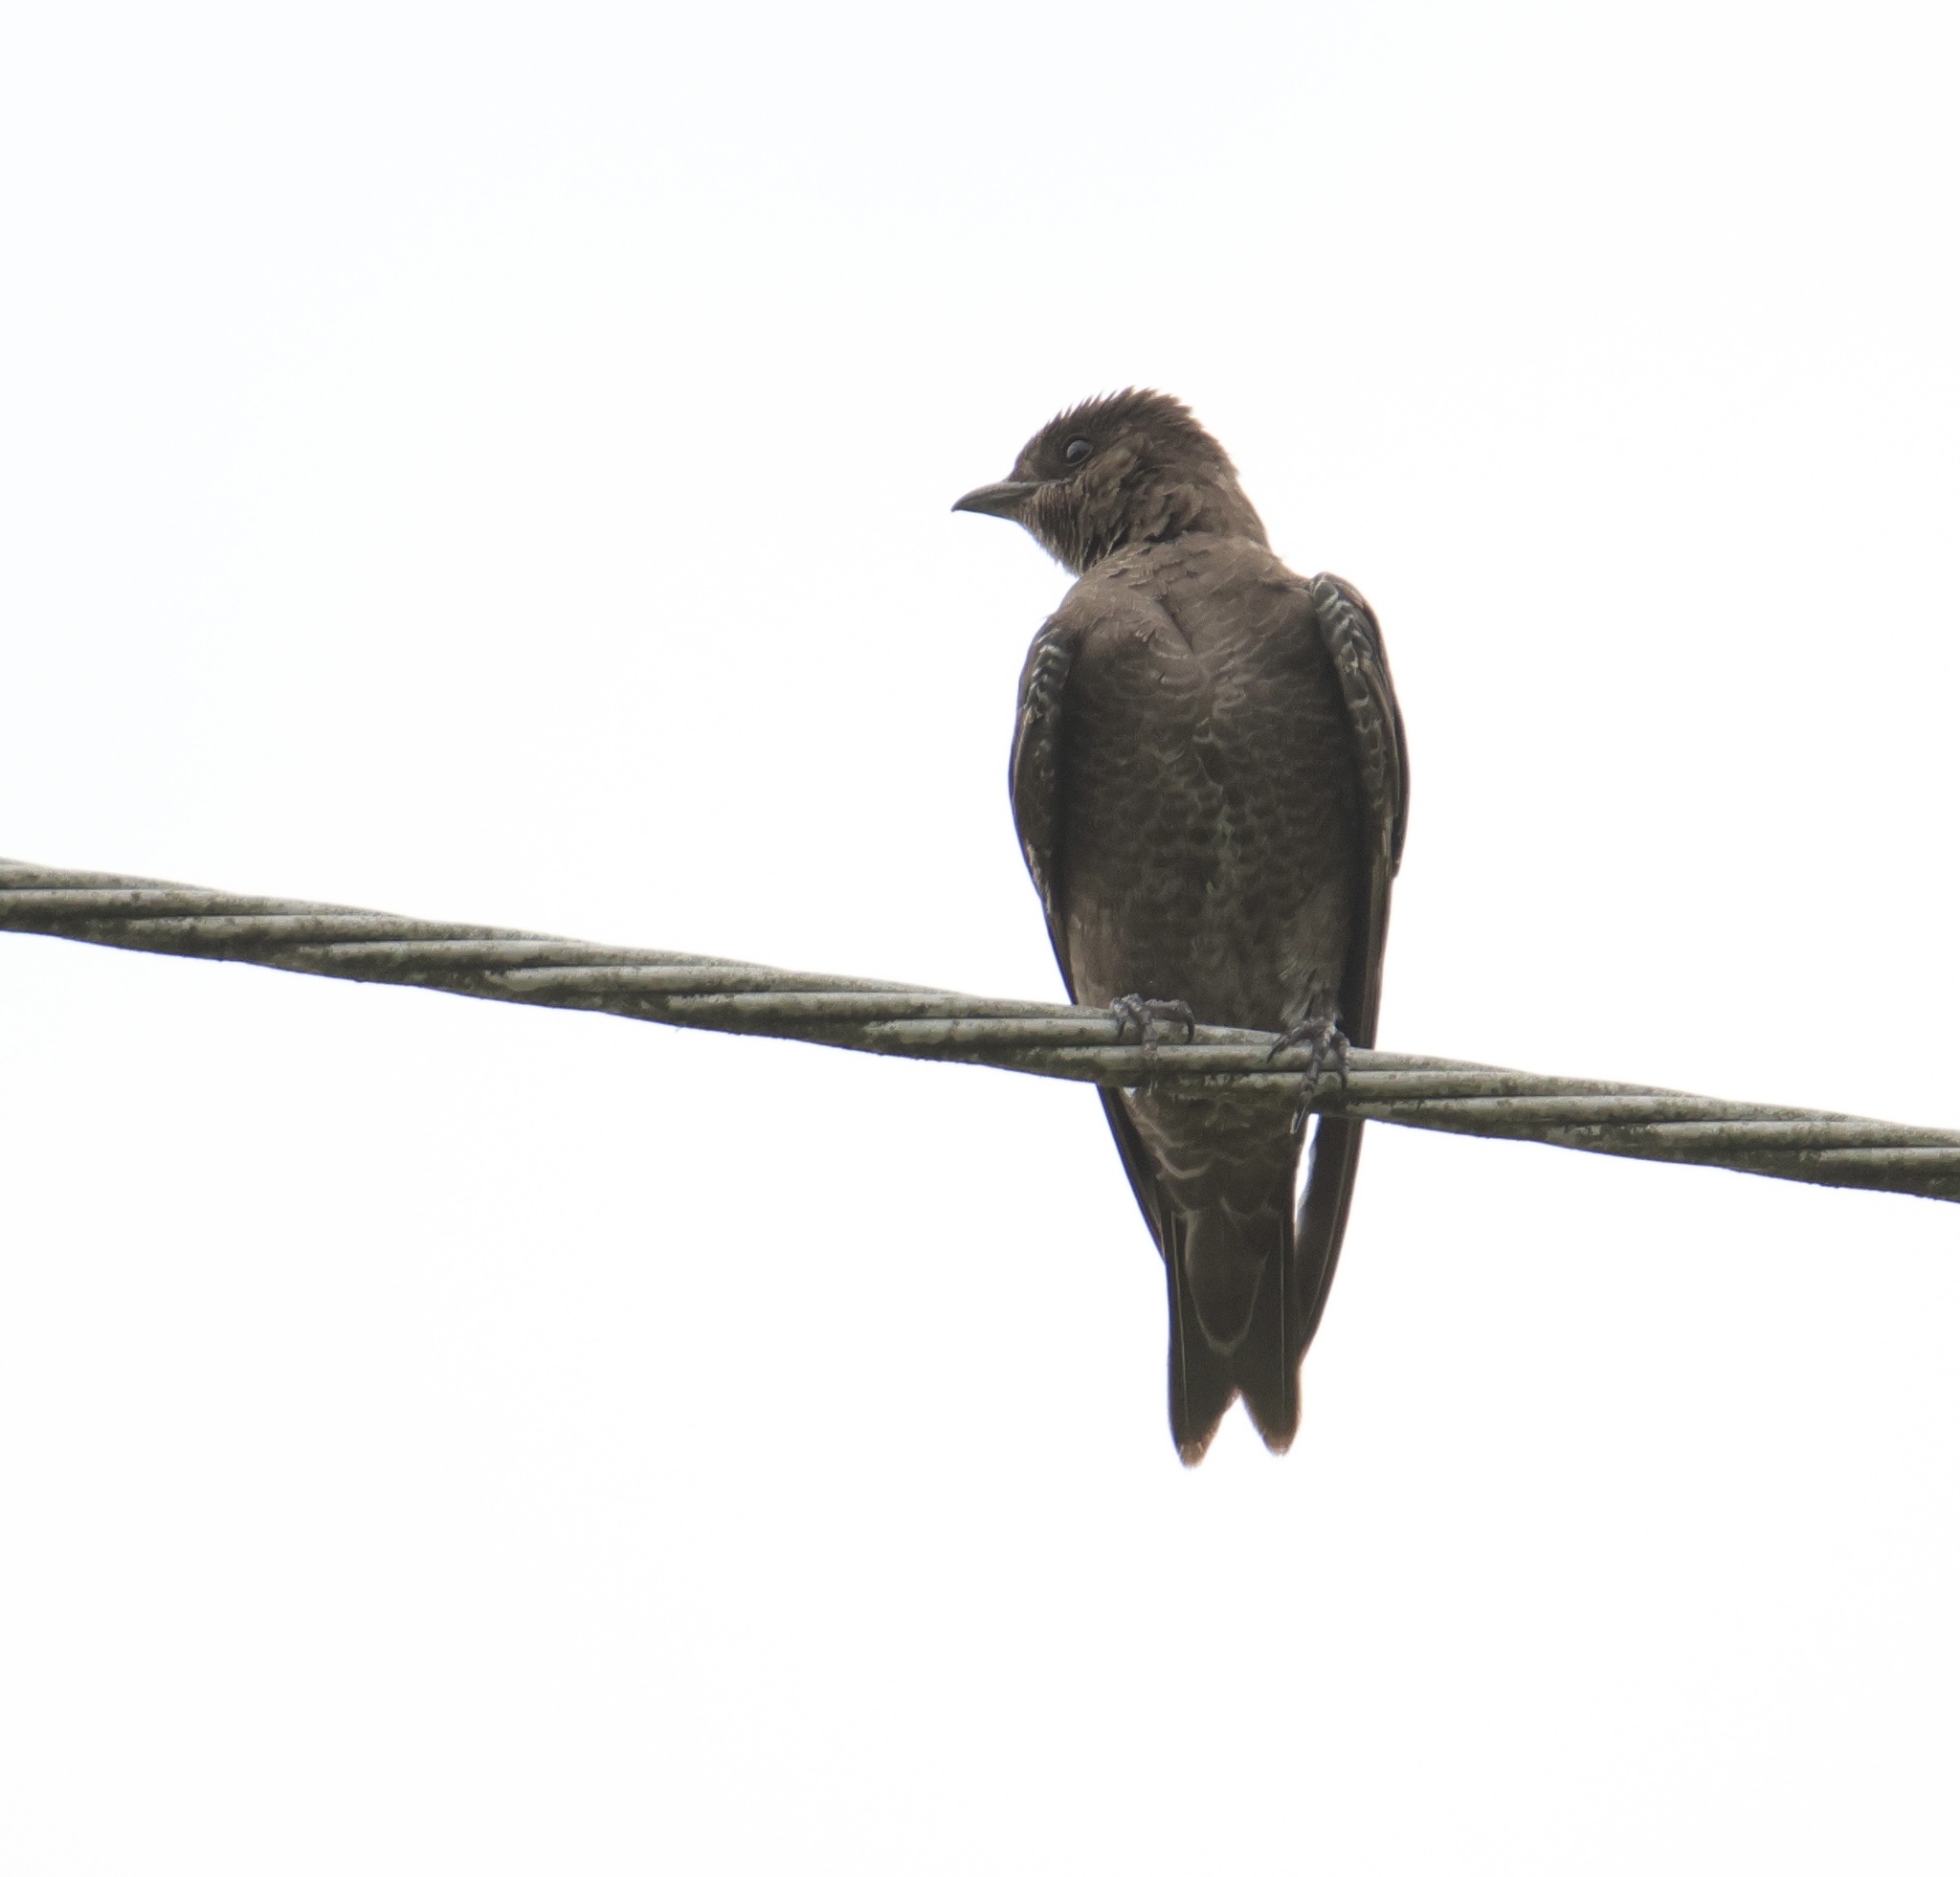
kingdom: Animalia
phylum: Chordata
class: Aves
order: Passeriformes
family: Hirundinidae
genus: Progne
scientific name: Progne elegans
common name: Southern martin
